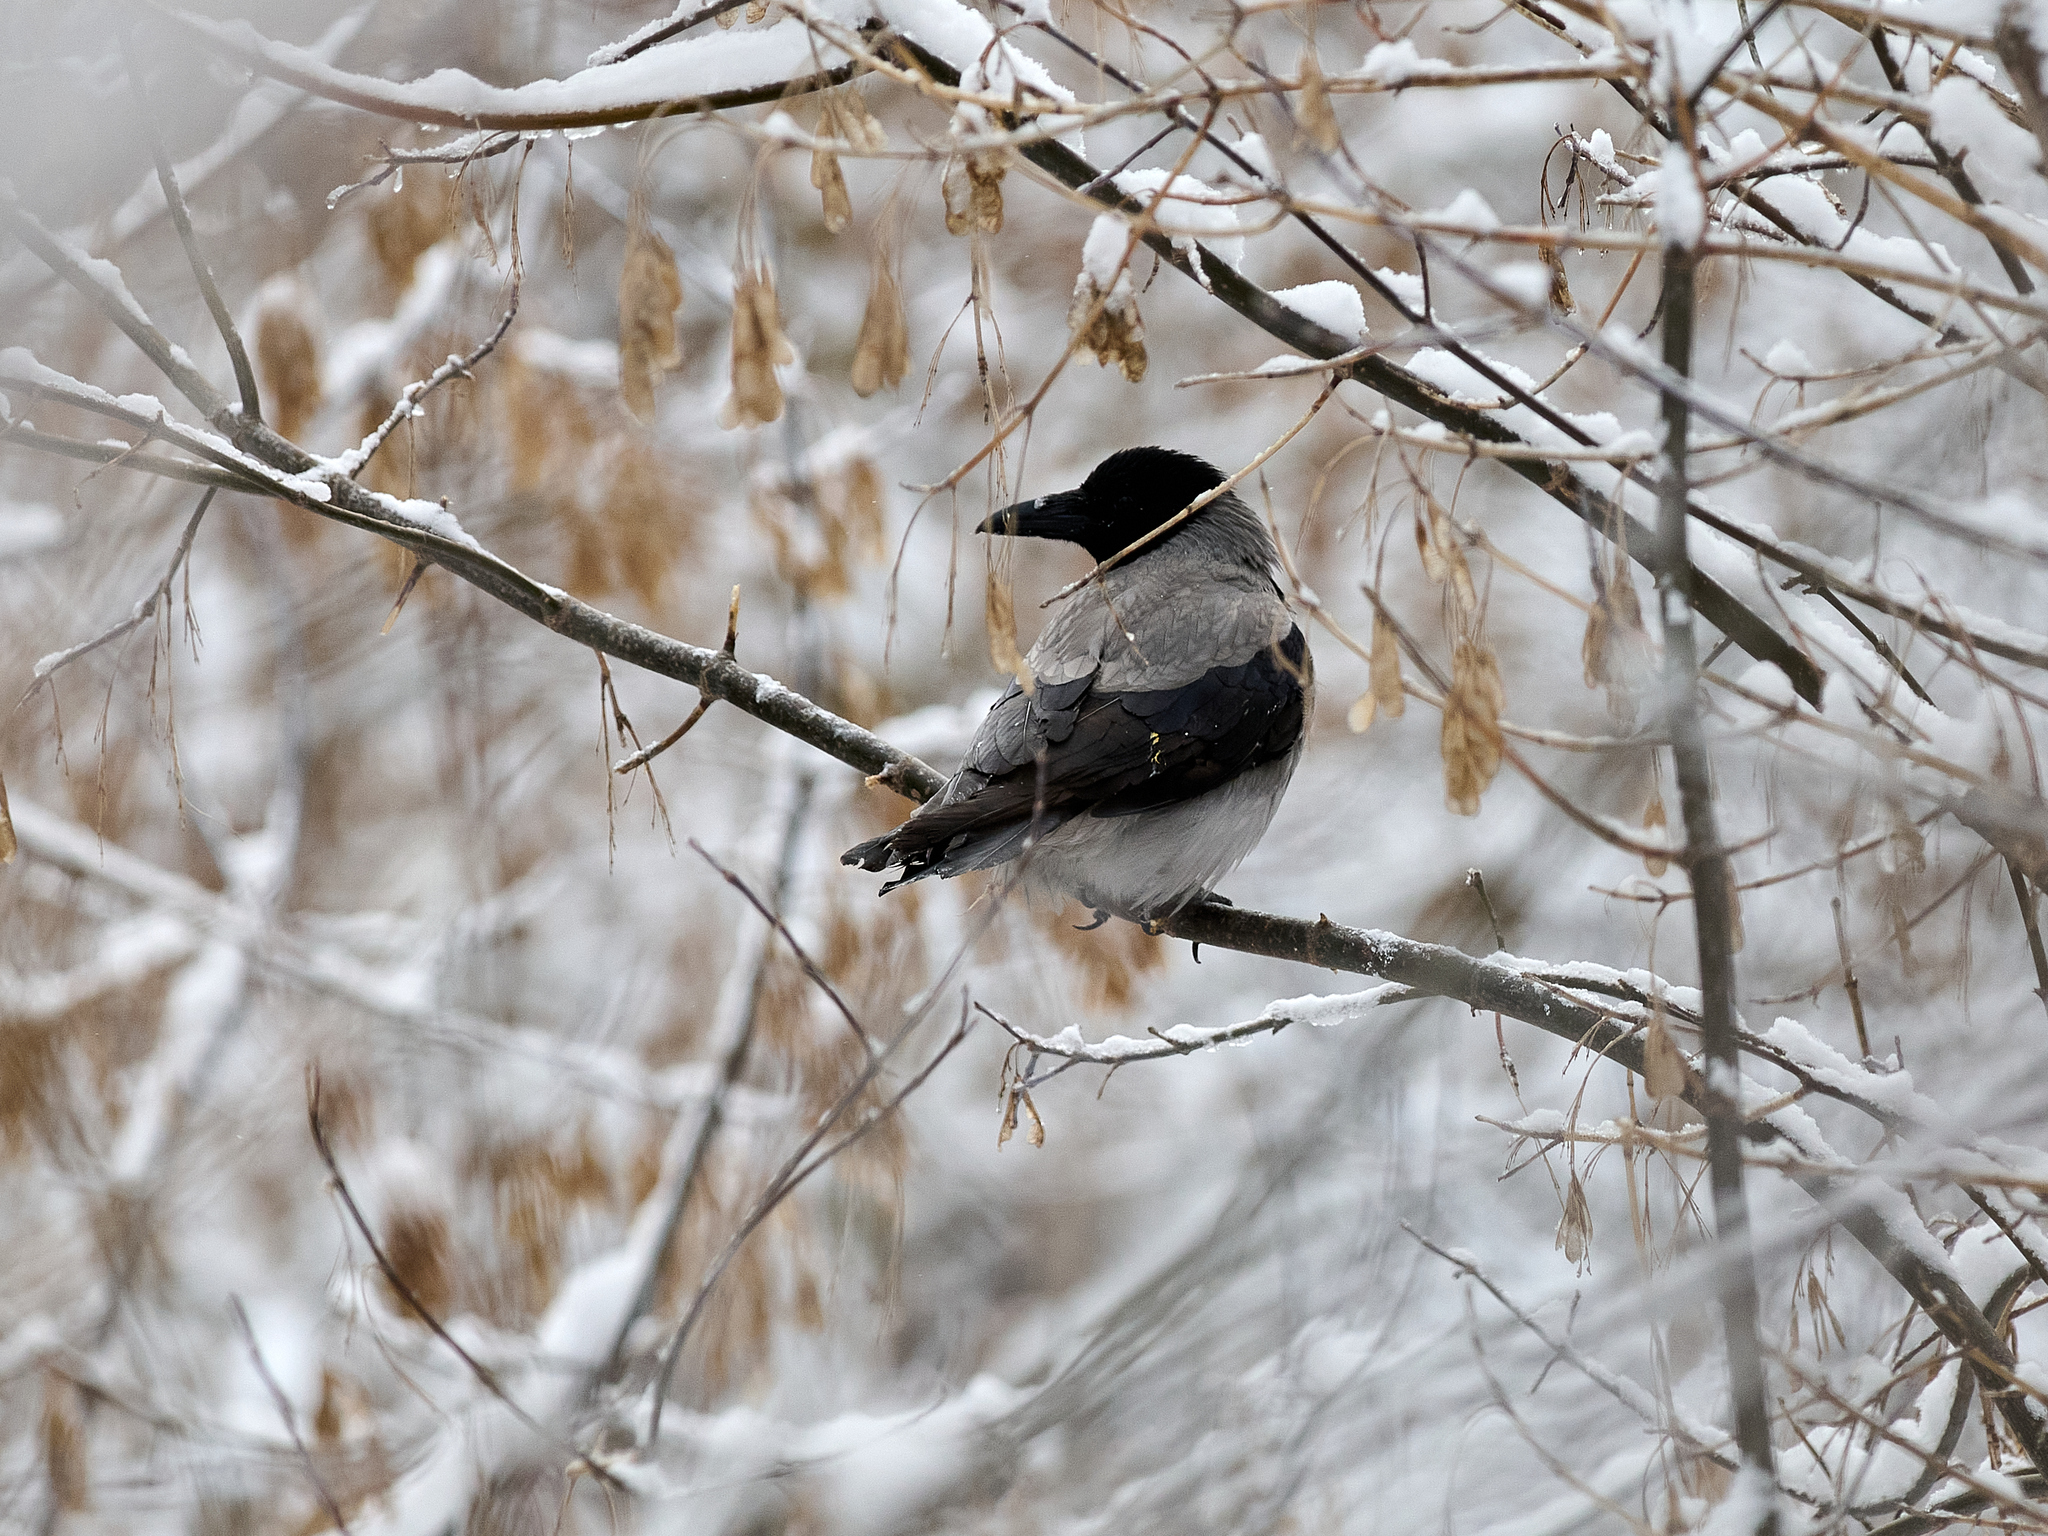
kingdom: Animalia
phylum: Chordata
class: Aves
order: Passeriformes
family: Corvidae
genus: Corvus
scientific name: Corvus cornix
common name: Hooded crow
